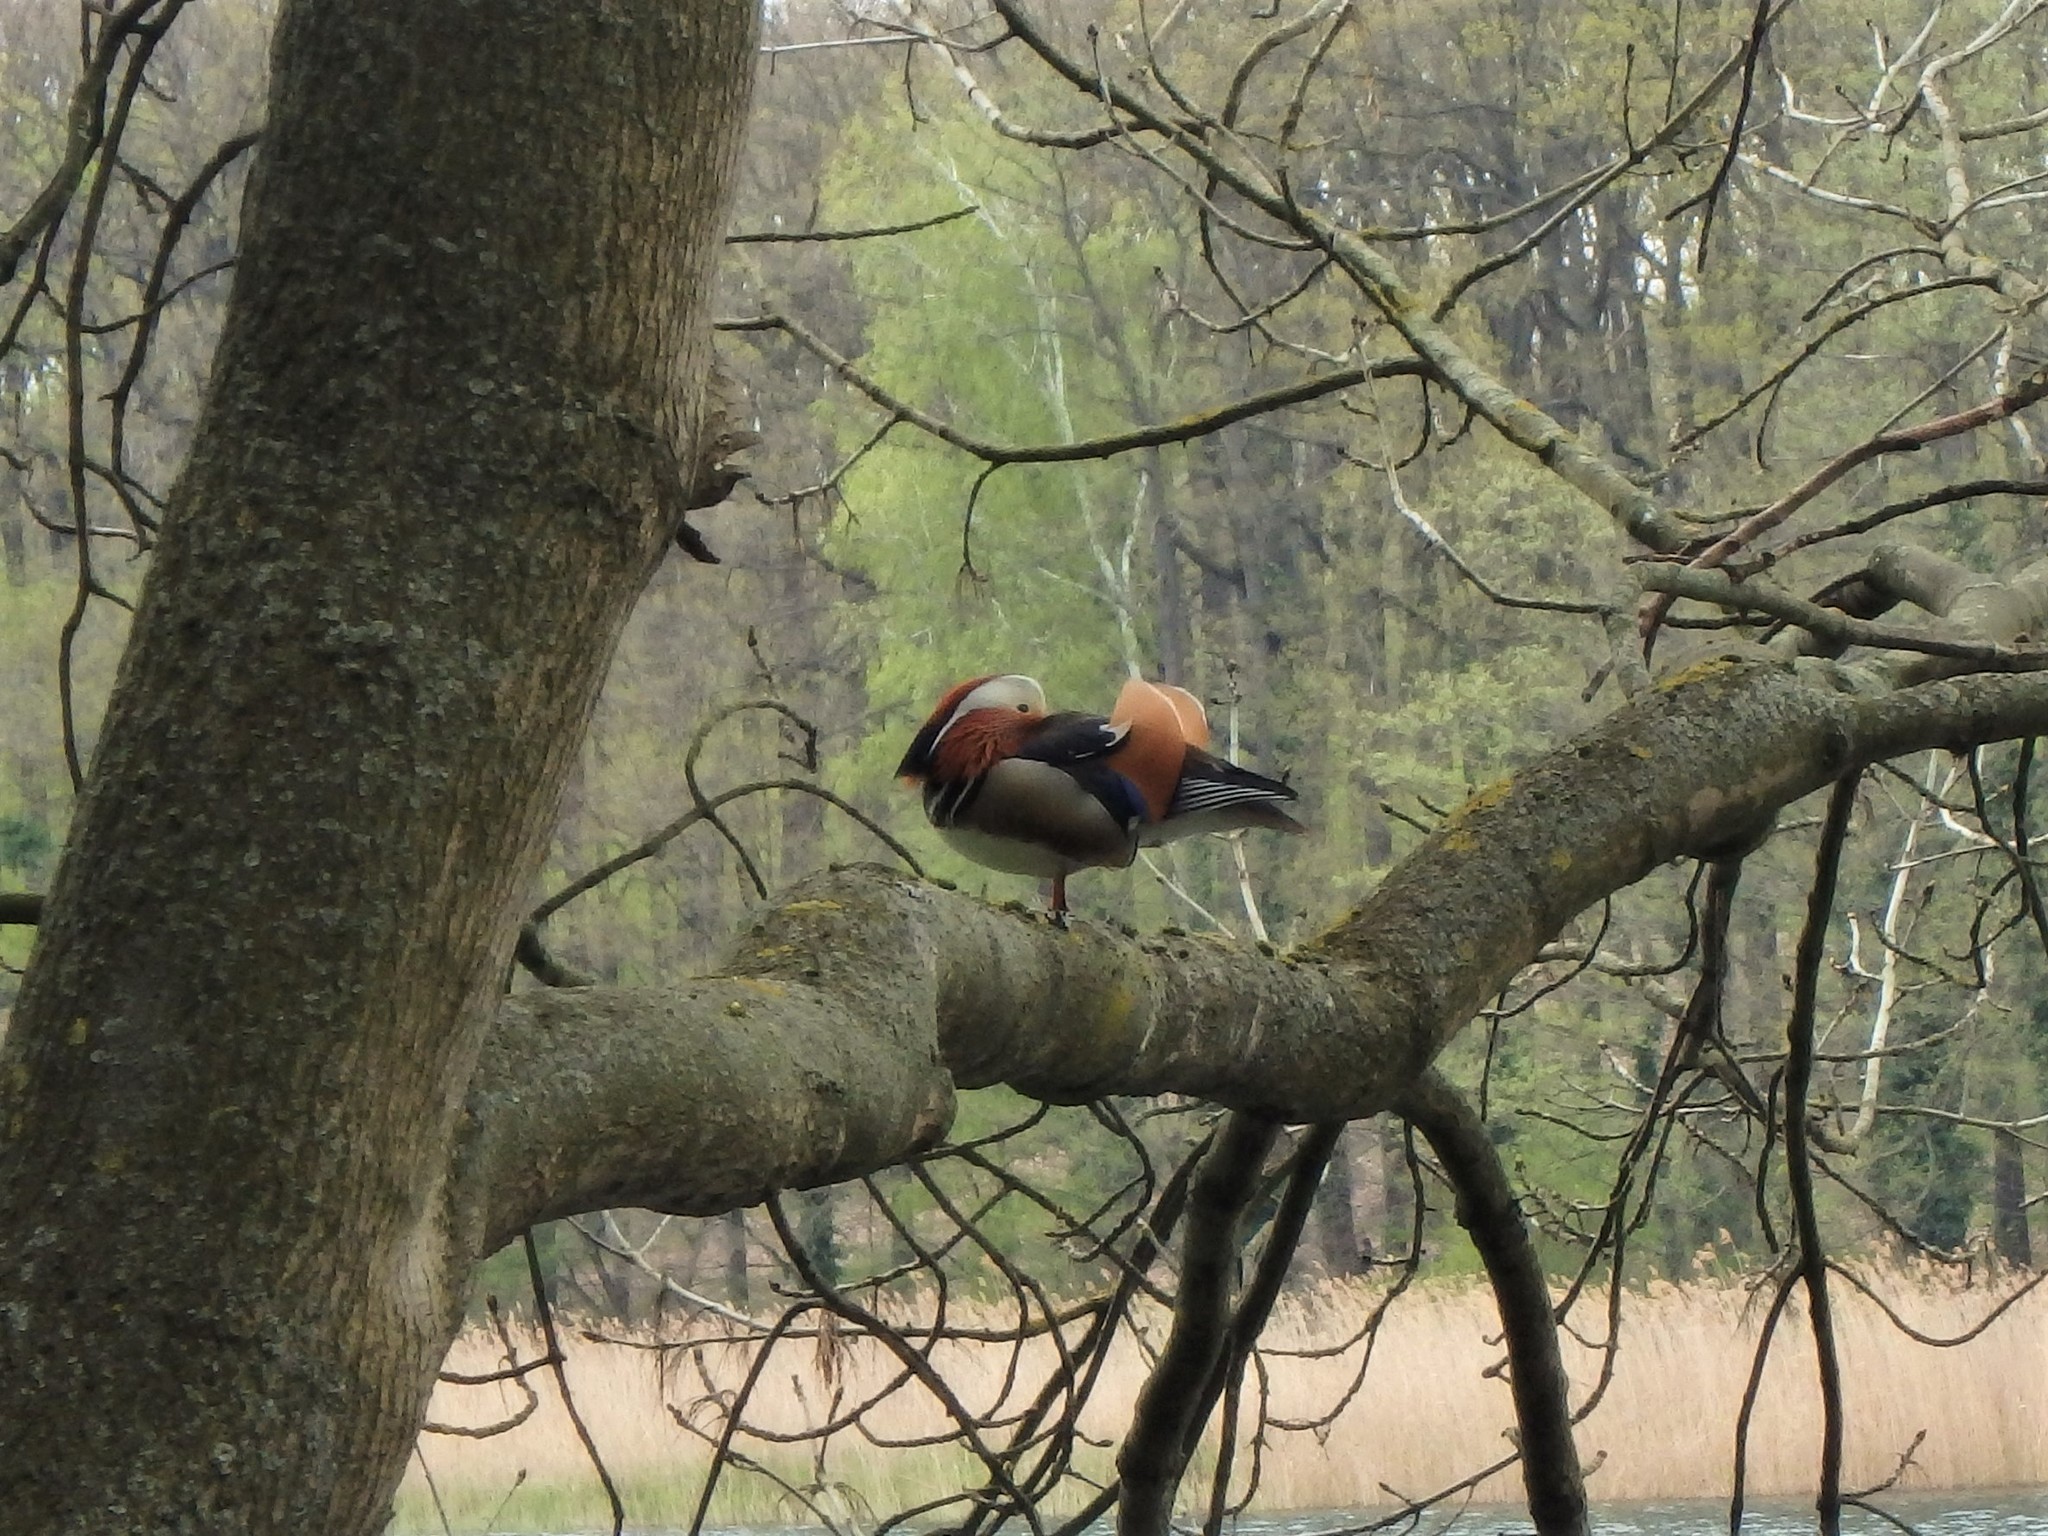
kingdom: Animalia
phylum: Chordata
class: Aves
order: Anseriformes
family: Anatidae
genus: Aix
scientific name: Aix galericulata
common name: Mandarin duck
